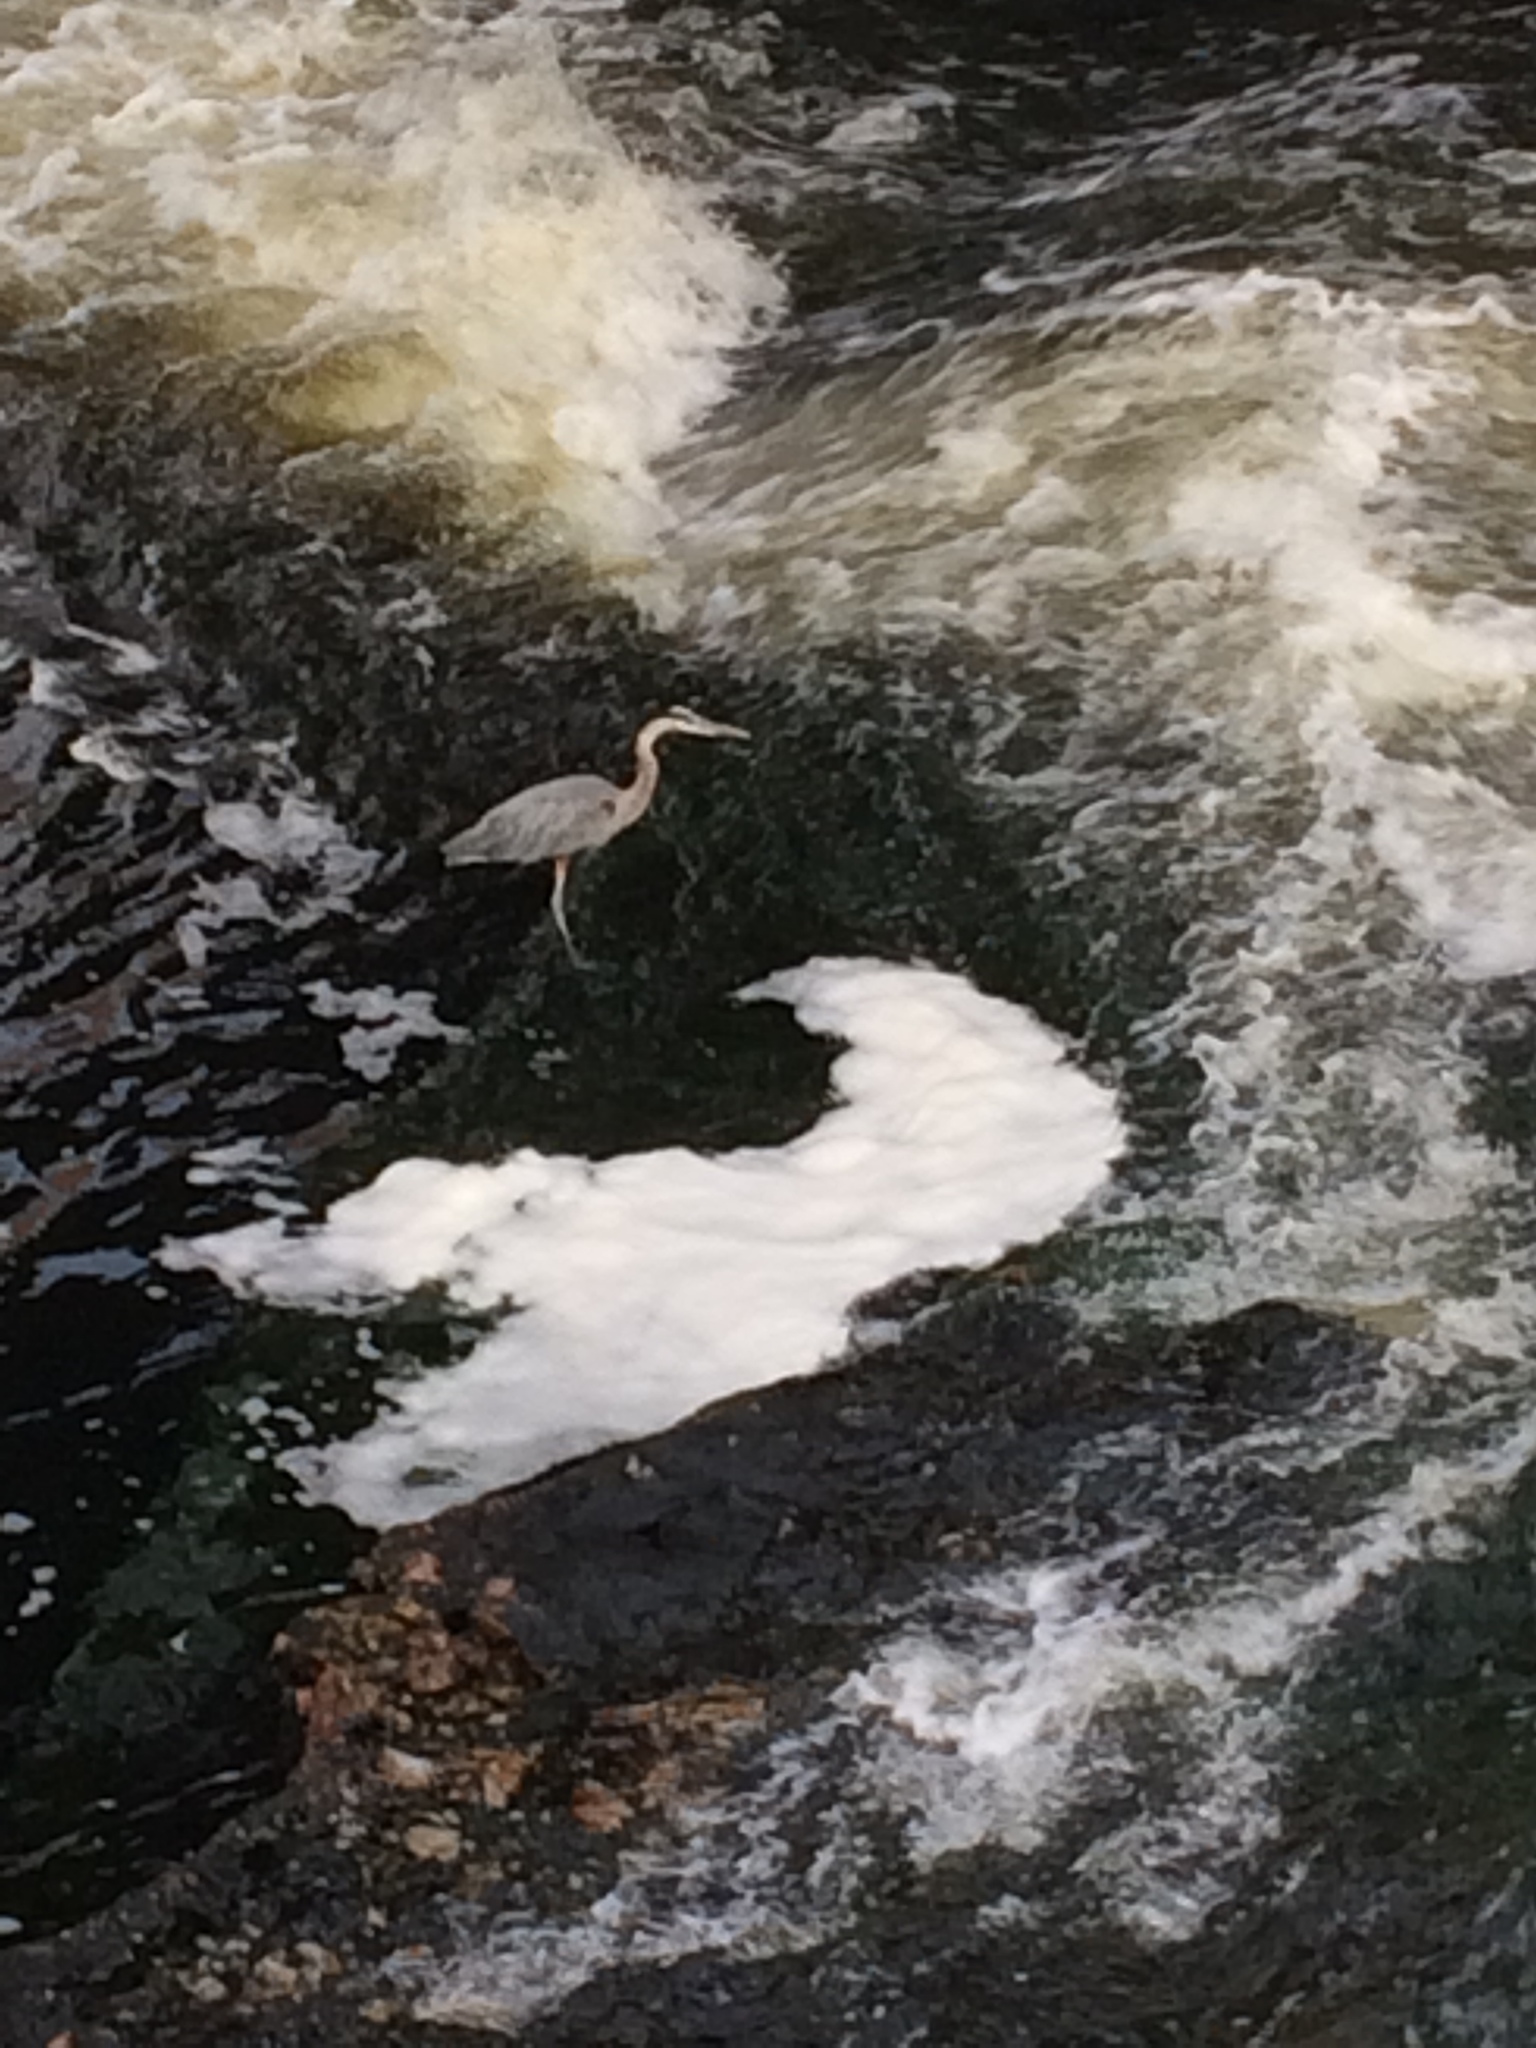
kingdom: Animalia
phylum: Chordata
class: Aves
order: Pelecaniformes
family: Ardeidae
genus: Ardea
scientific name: Ardea herodias
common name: Great blue heron
